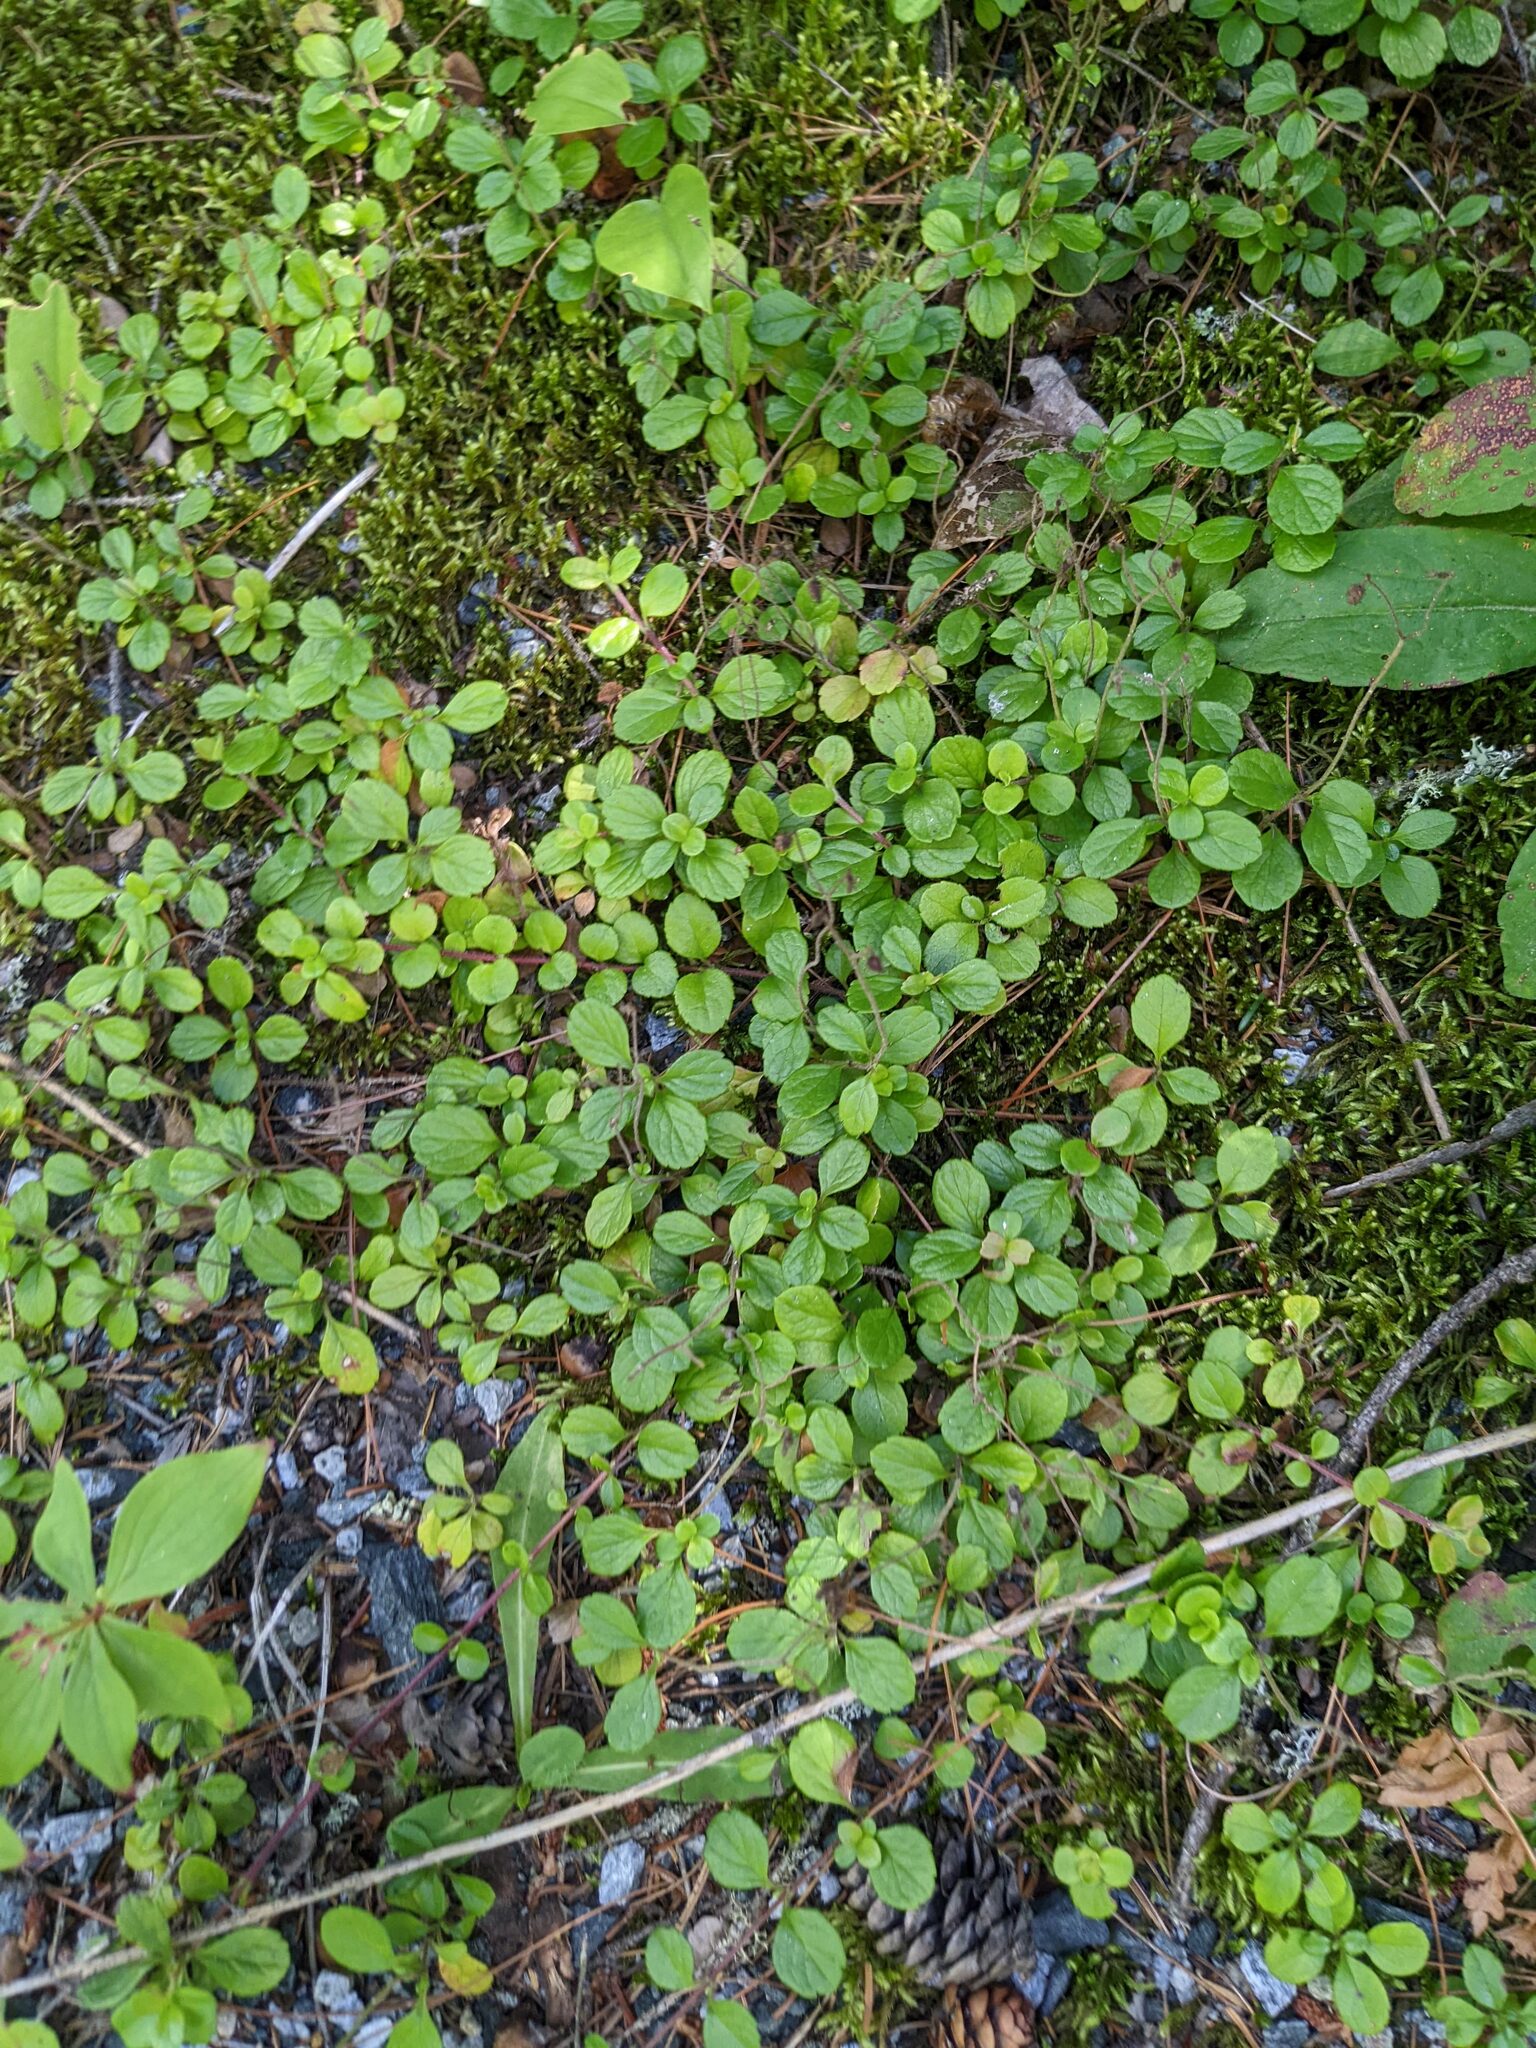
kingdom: Plantae
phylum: Tracheophyta
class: Magnoliopsida
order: Dipsacales
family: Caprifoliaceae
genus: Linnaea
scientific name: Linnaea borealis
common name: Twinflower
